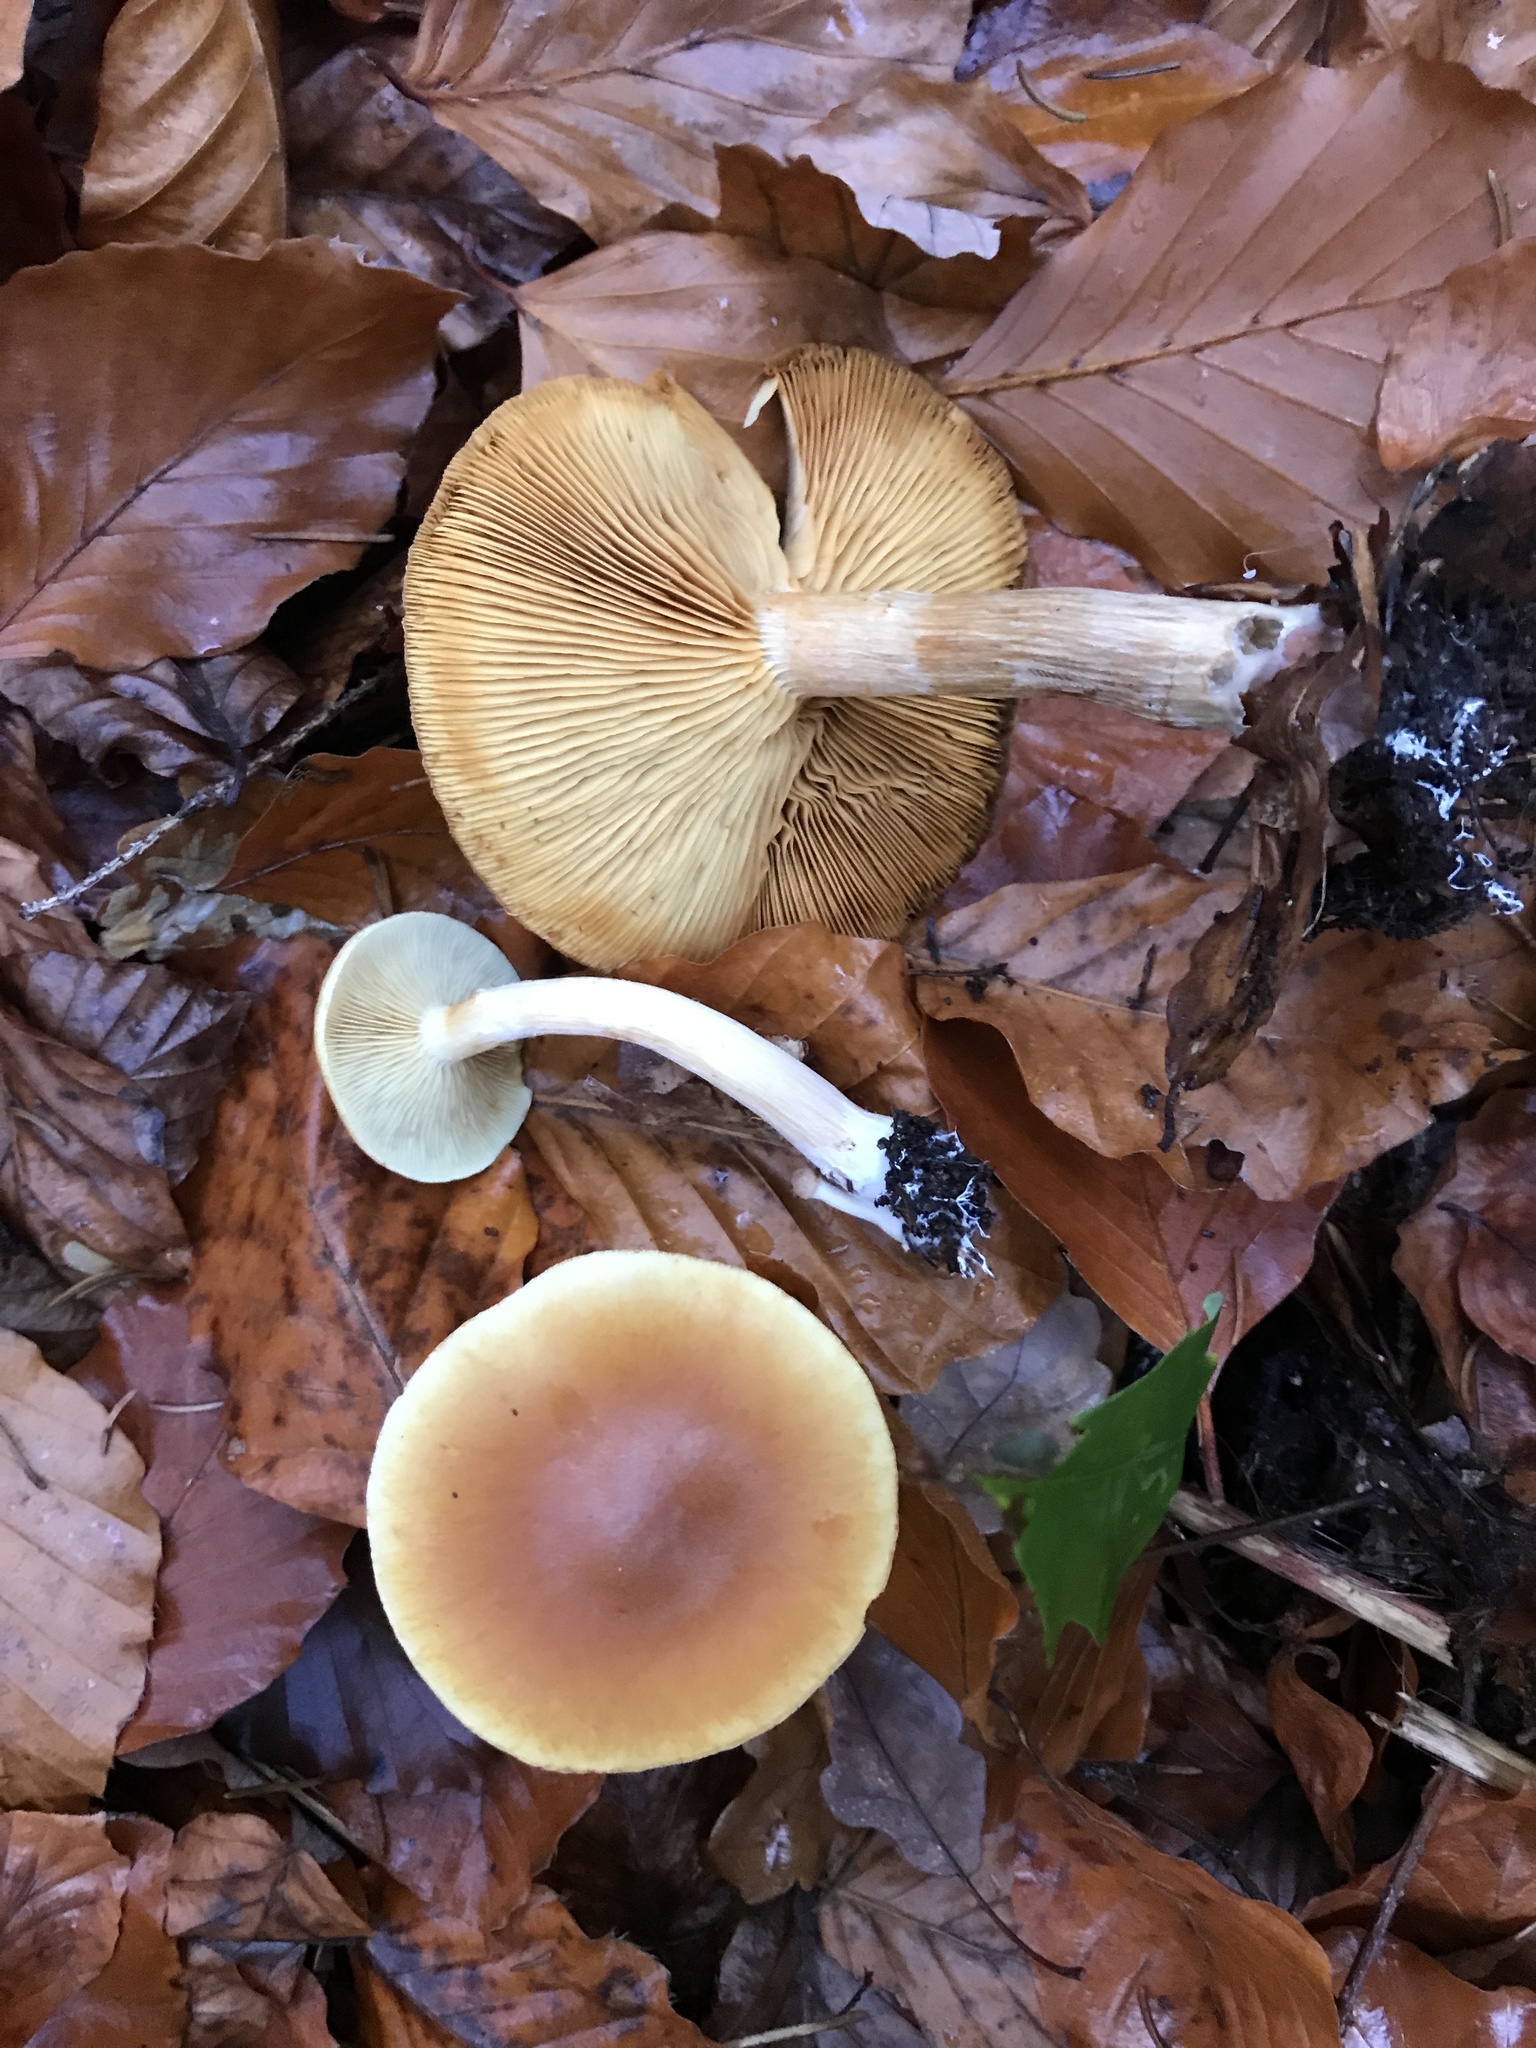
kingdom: Fungi
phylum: Basidiomycota
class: Agaricomycetes
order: Agaricales
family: Hymenogastraceae
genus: Gymnopilus
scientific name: Gymnopilus penetrans
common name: Common rustgill
